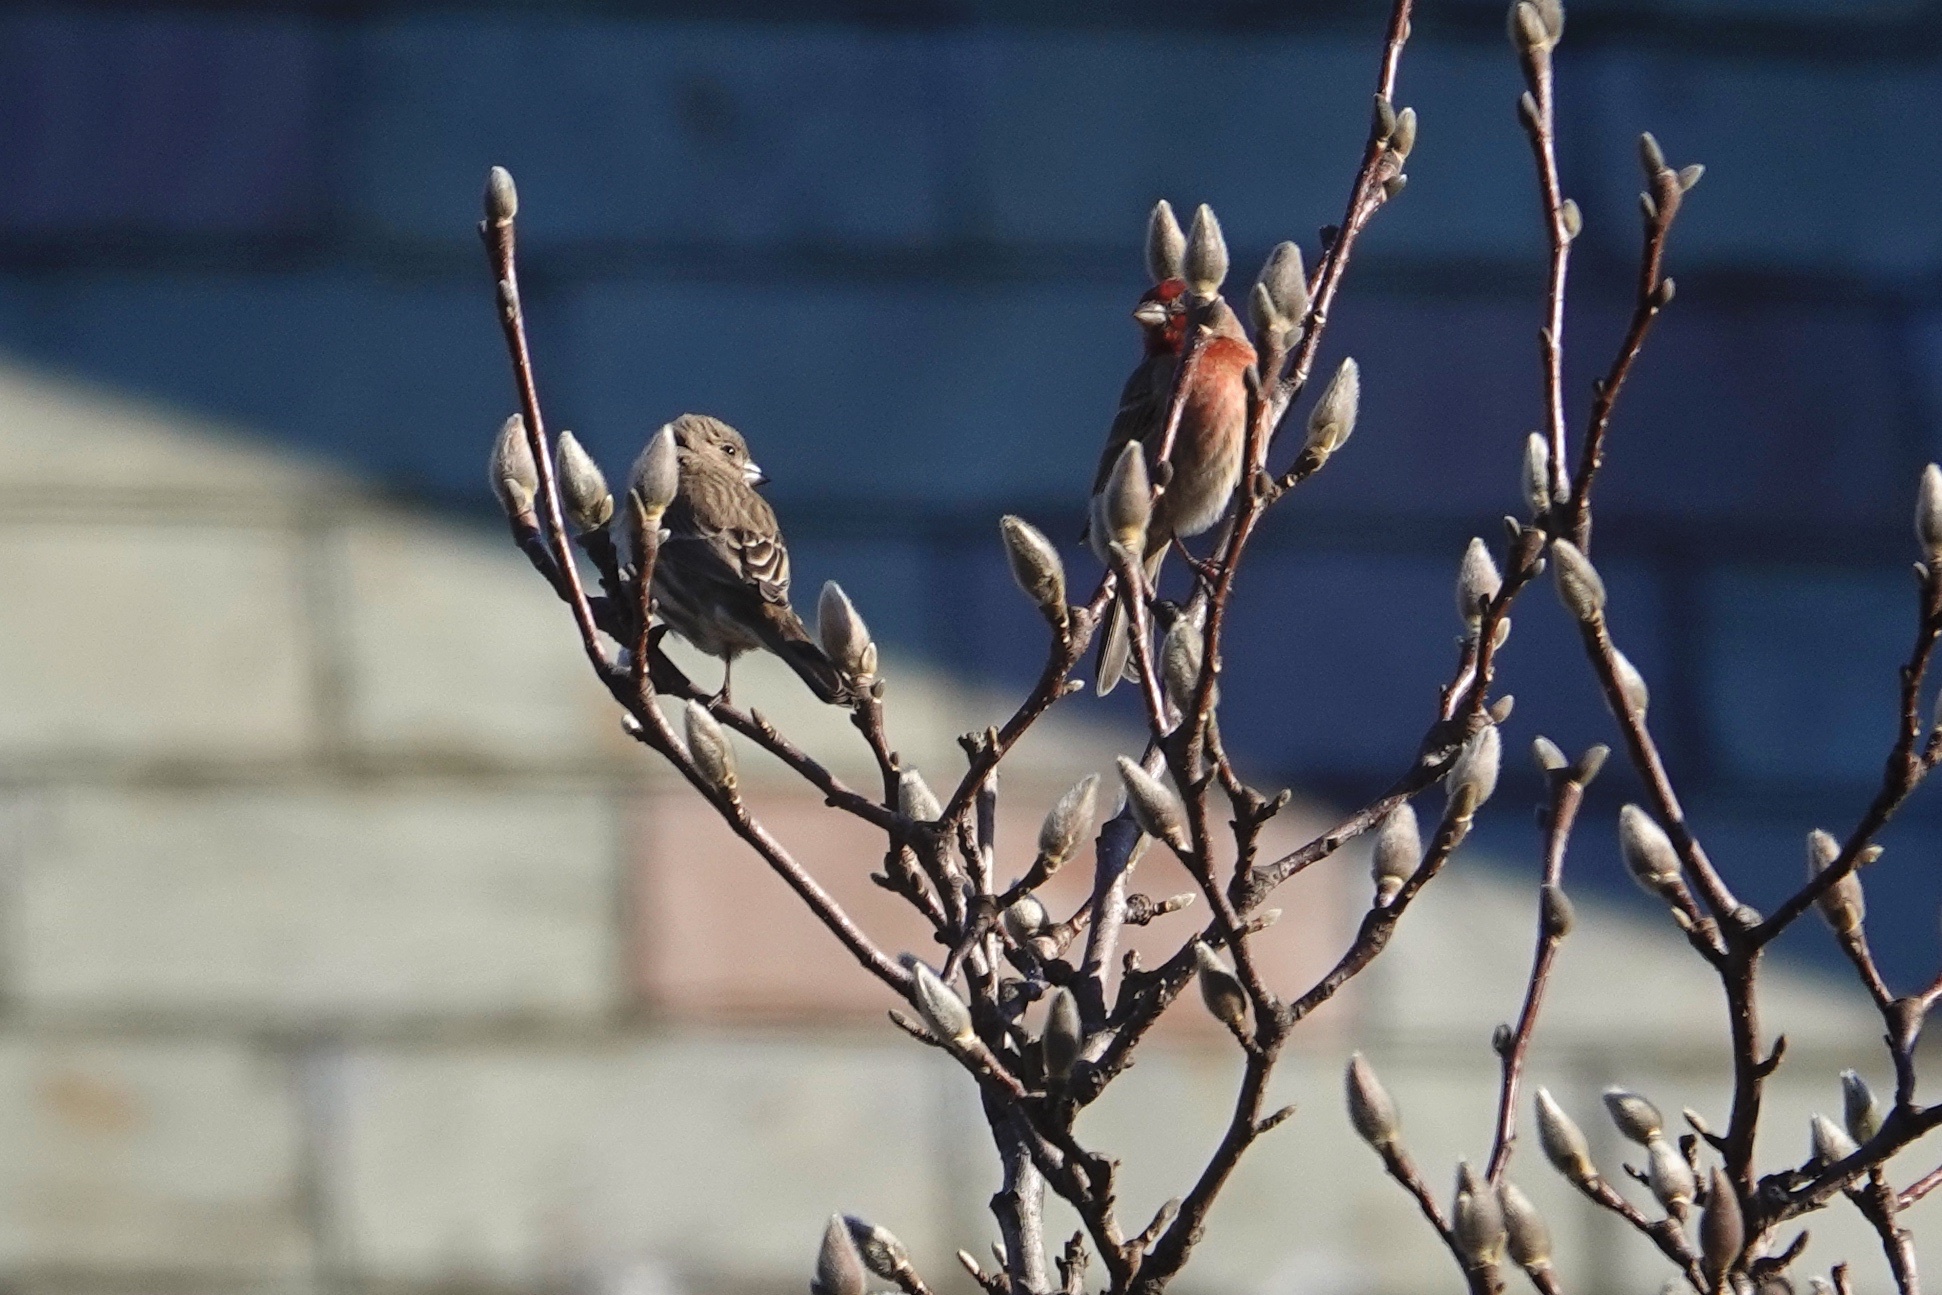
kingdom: Animalia
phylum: Chordata
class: Aves
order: Passeriformes
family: Fringillidae
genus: Haemorhous
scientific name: Haemorhous mexicanus
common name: House finch
